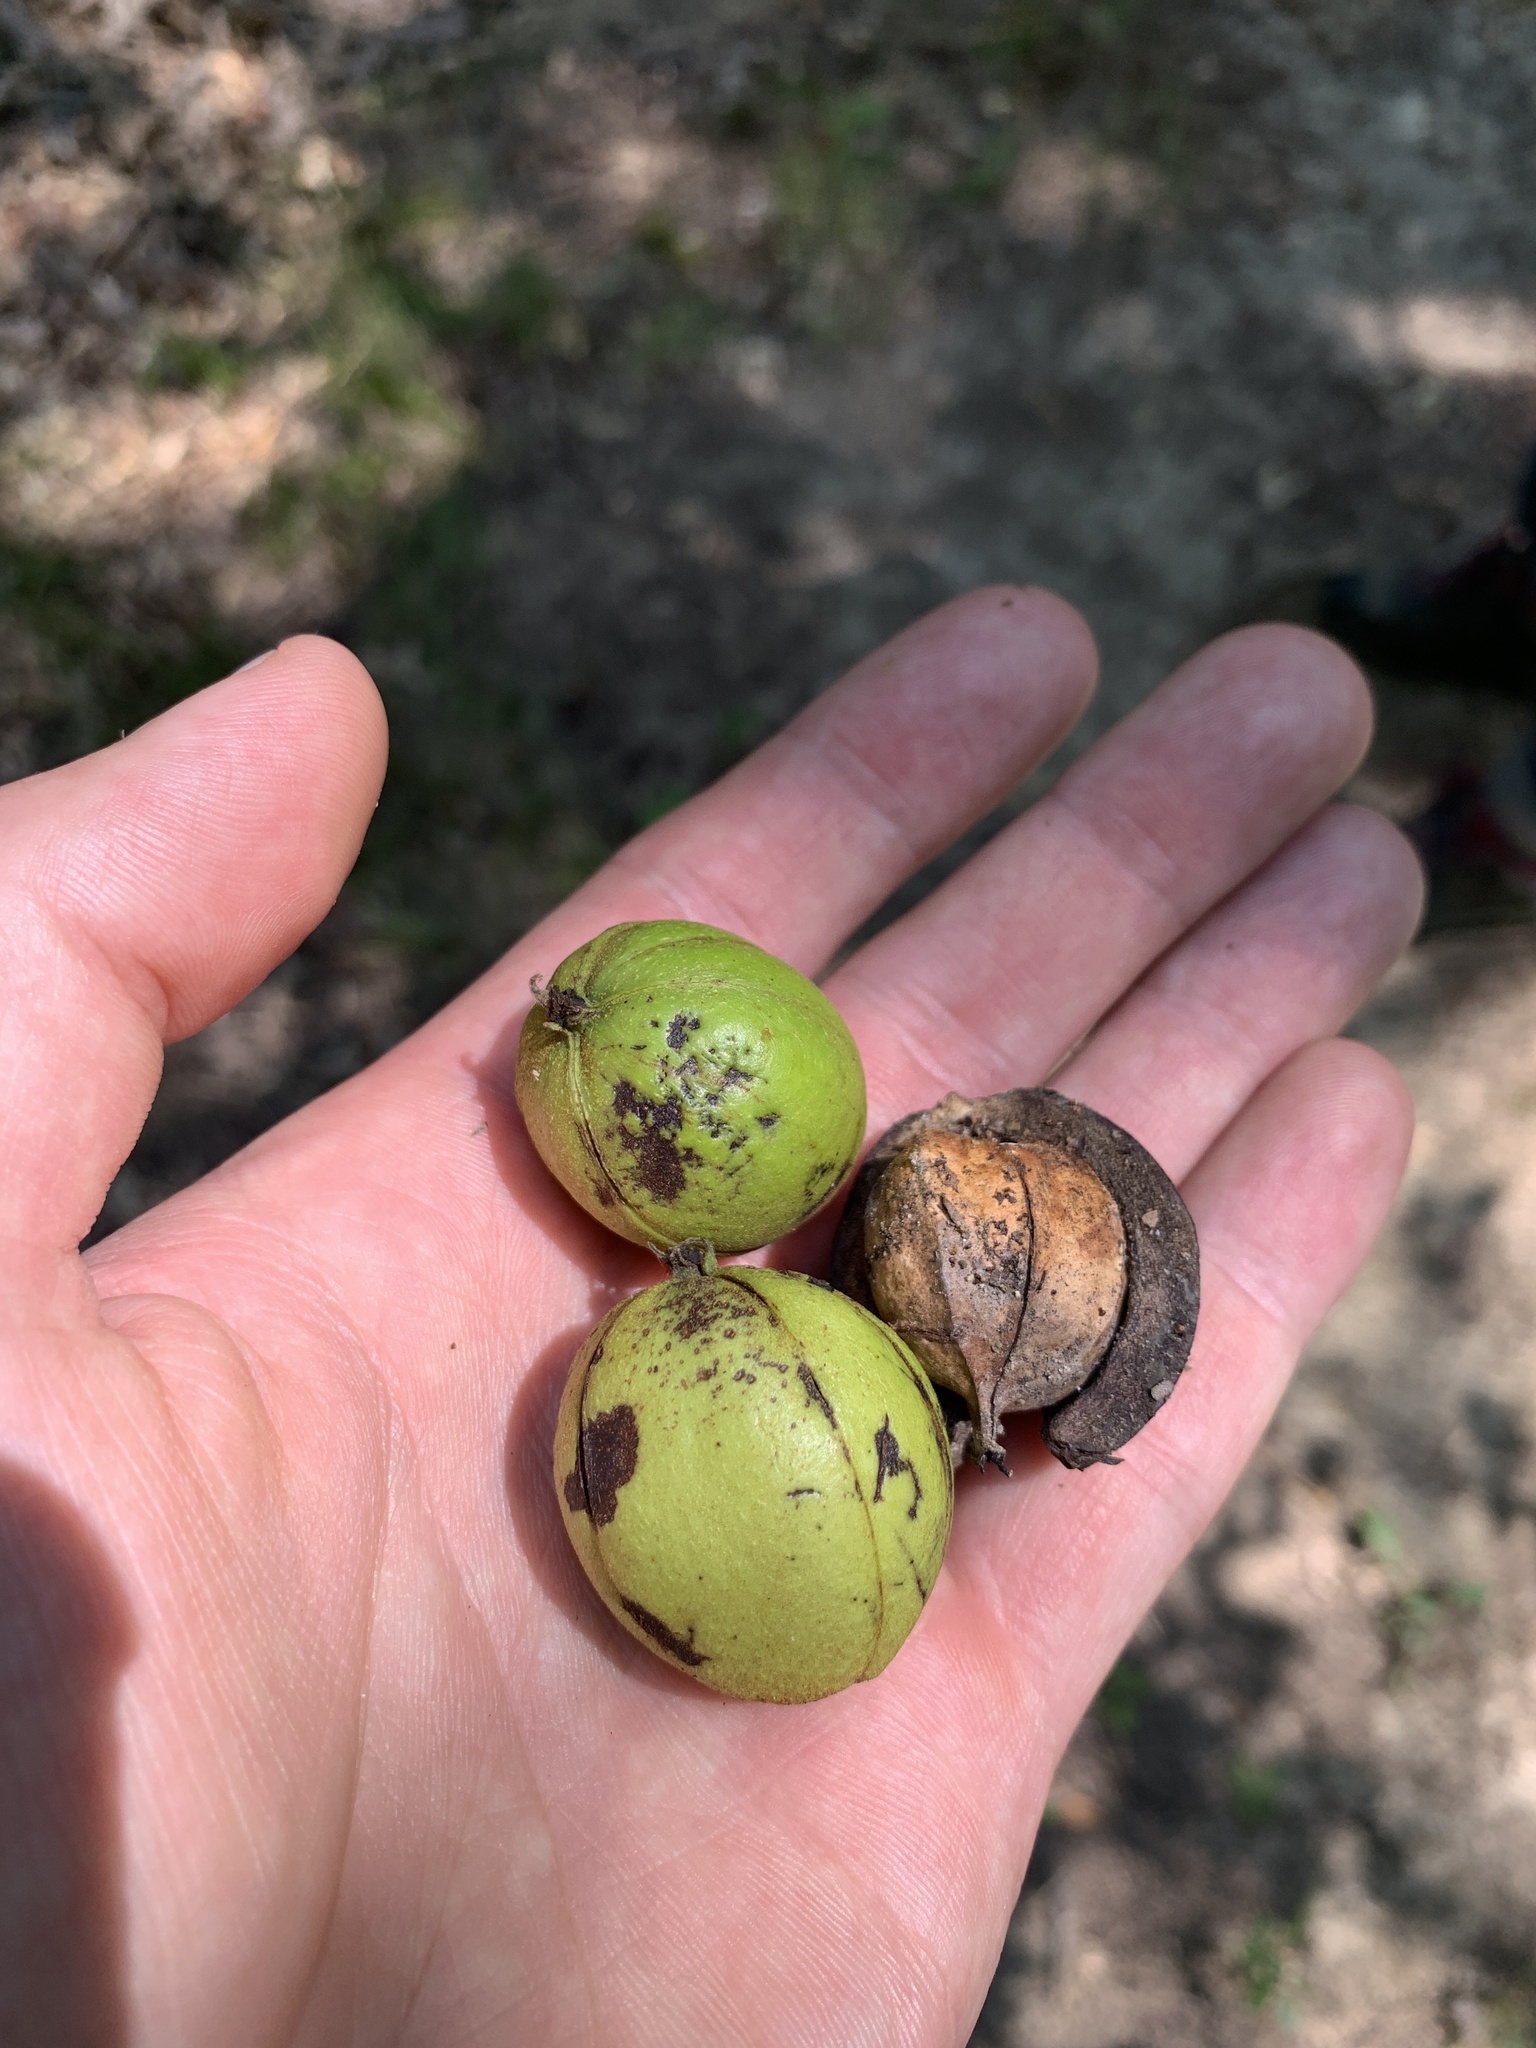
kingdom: Plantae
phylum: Tracheophyta
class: Magnoliopsida
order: Fagales
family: Juglandaceae
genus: Carya
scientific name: Carya ovata
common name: Shagbark hickory
